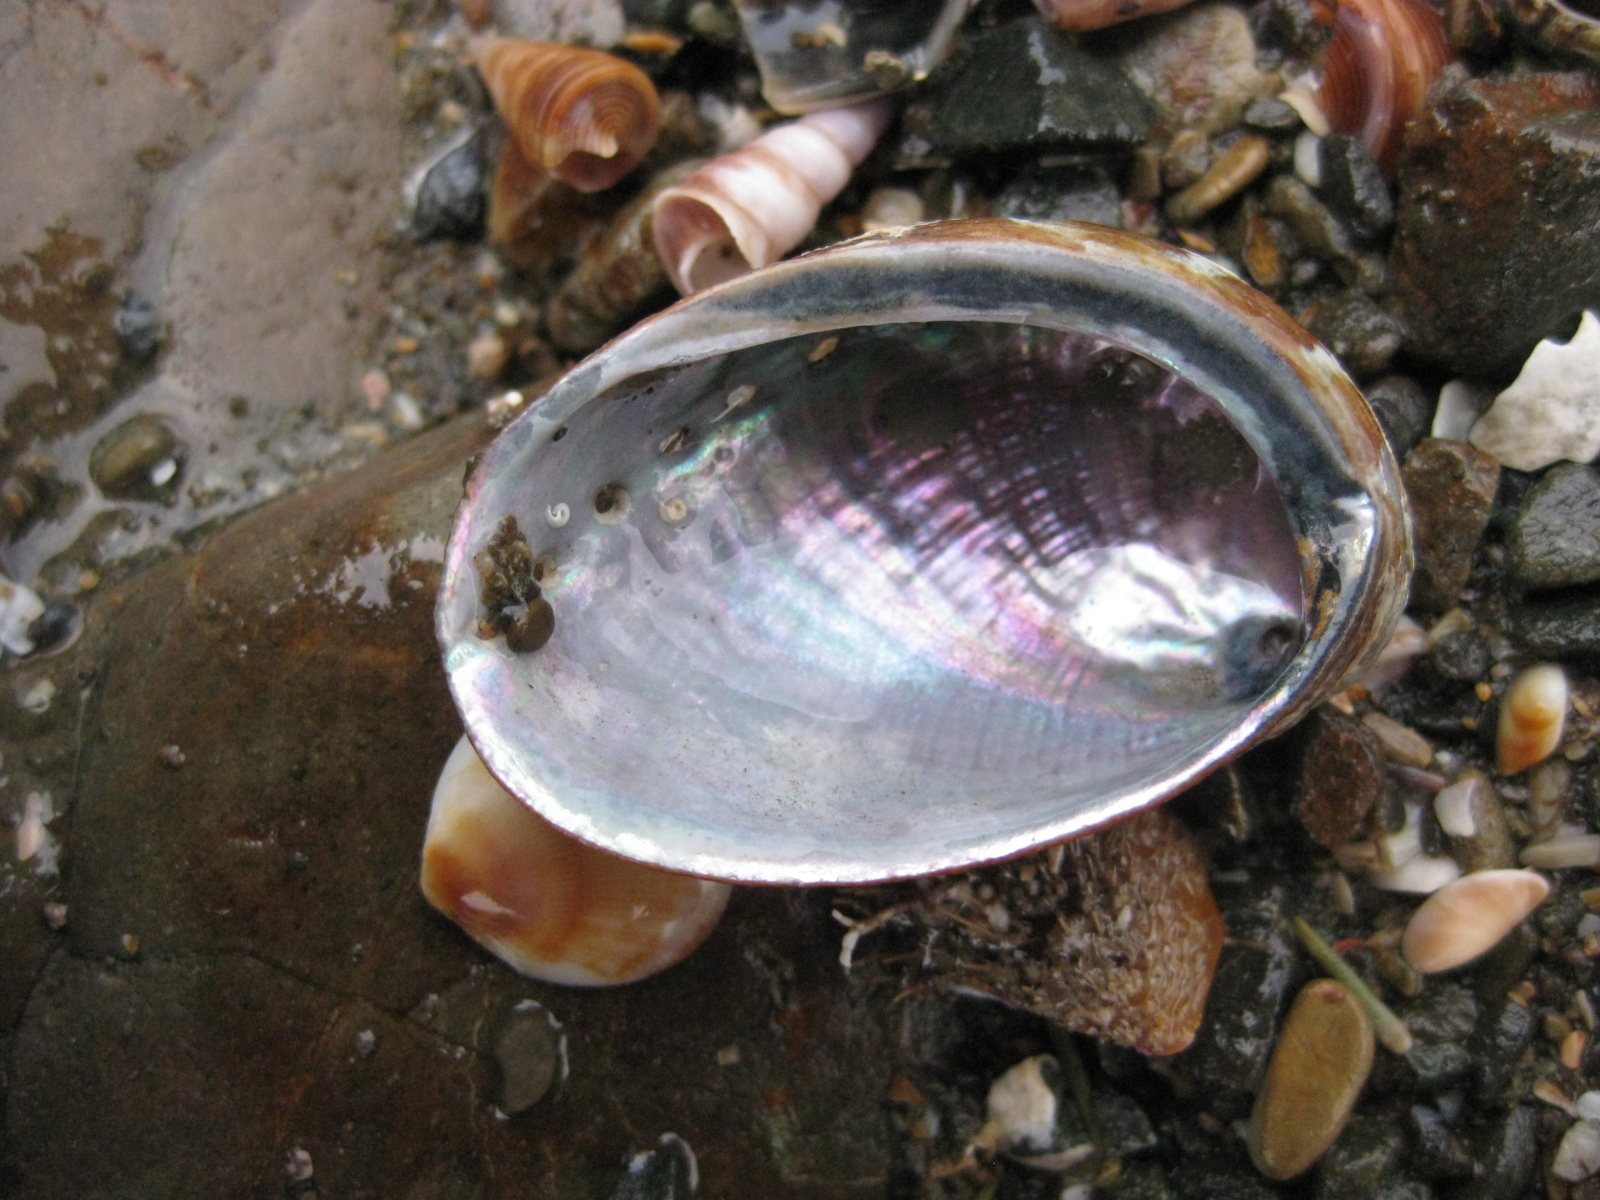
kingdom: Animalia
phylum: Mollusca
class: Gastropoda
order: Lepetellida
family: Haliotidae
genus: Haliotis
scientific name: Haliotis virginea
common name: Whitefoot paua
